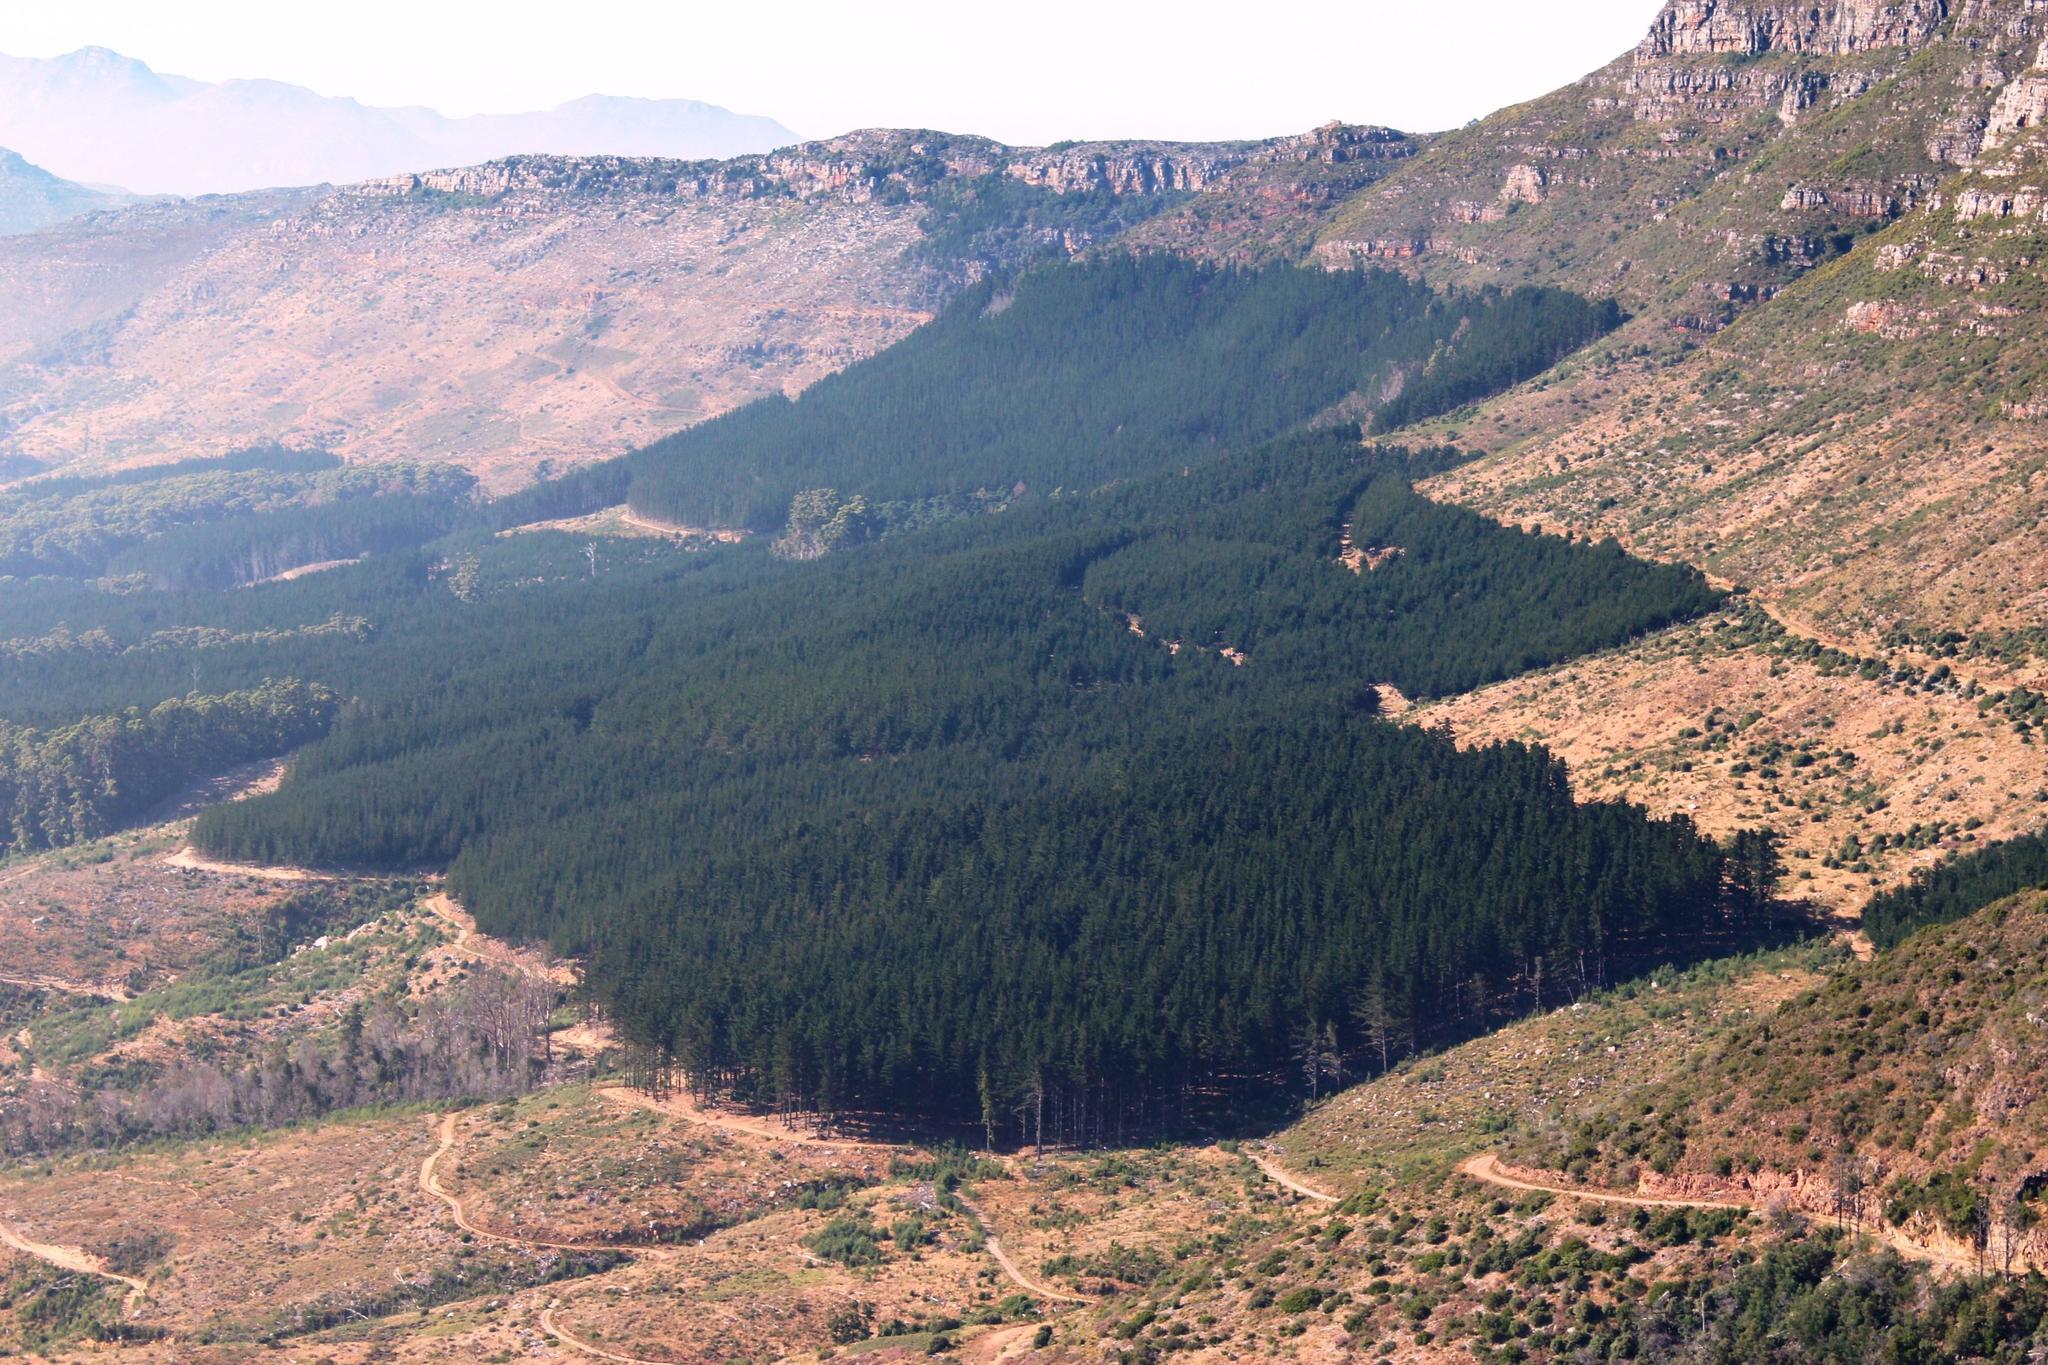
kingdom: Plantae
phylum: Tracheophyta
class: Pinopsida
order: Pinales
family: Pinaceae
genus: Pinus
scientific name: Pinus radiata
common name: Monterey pine
